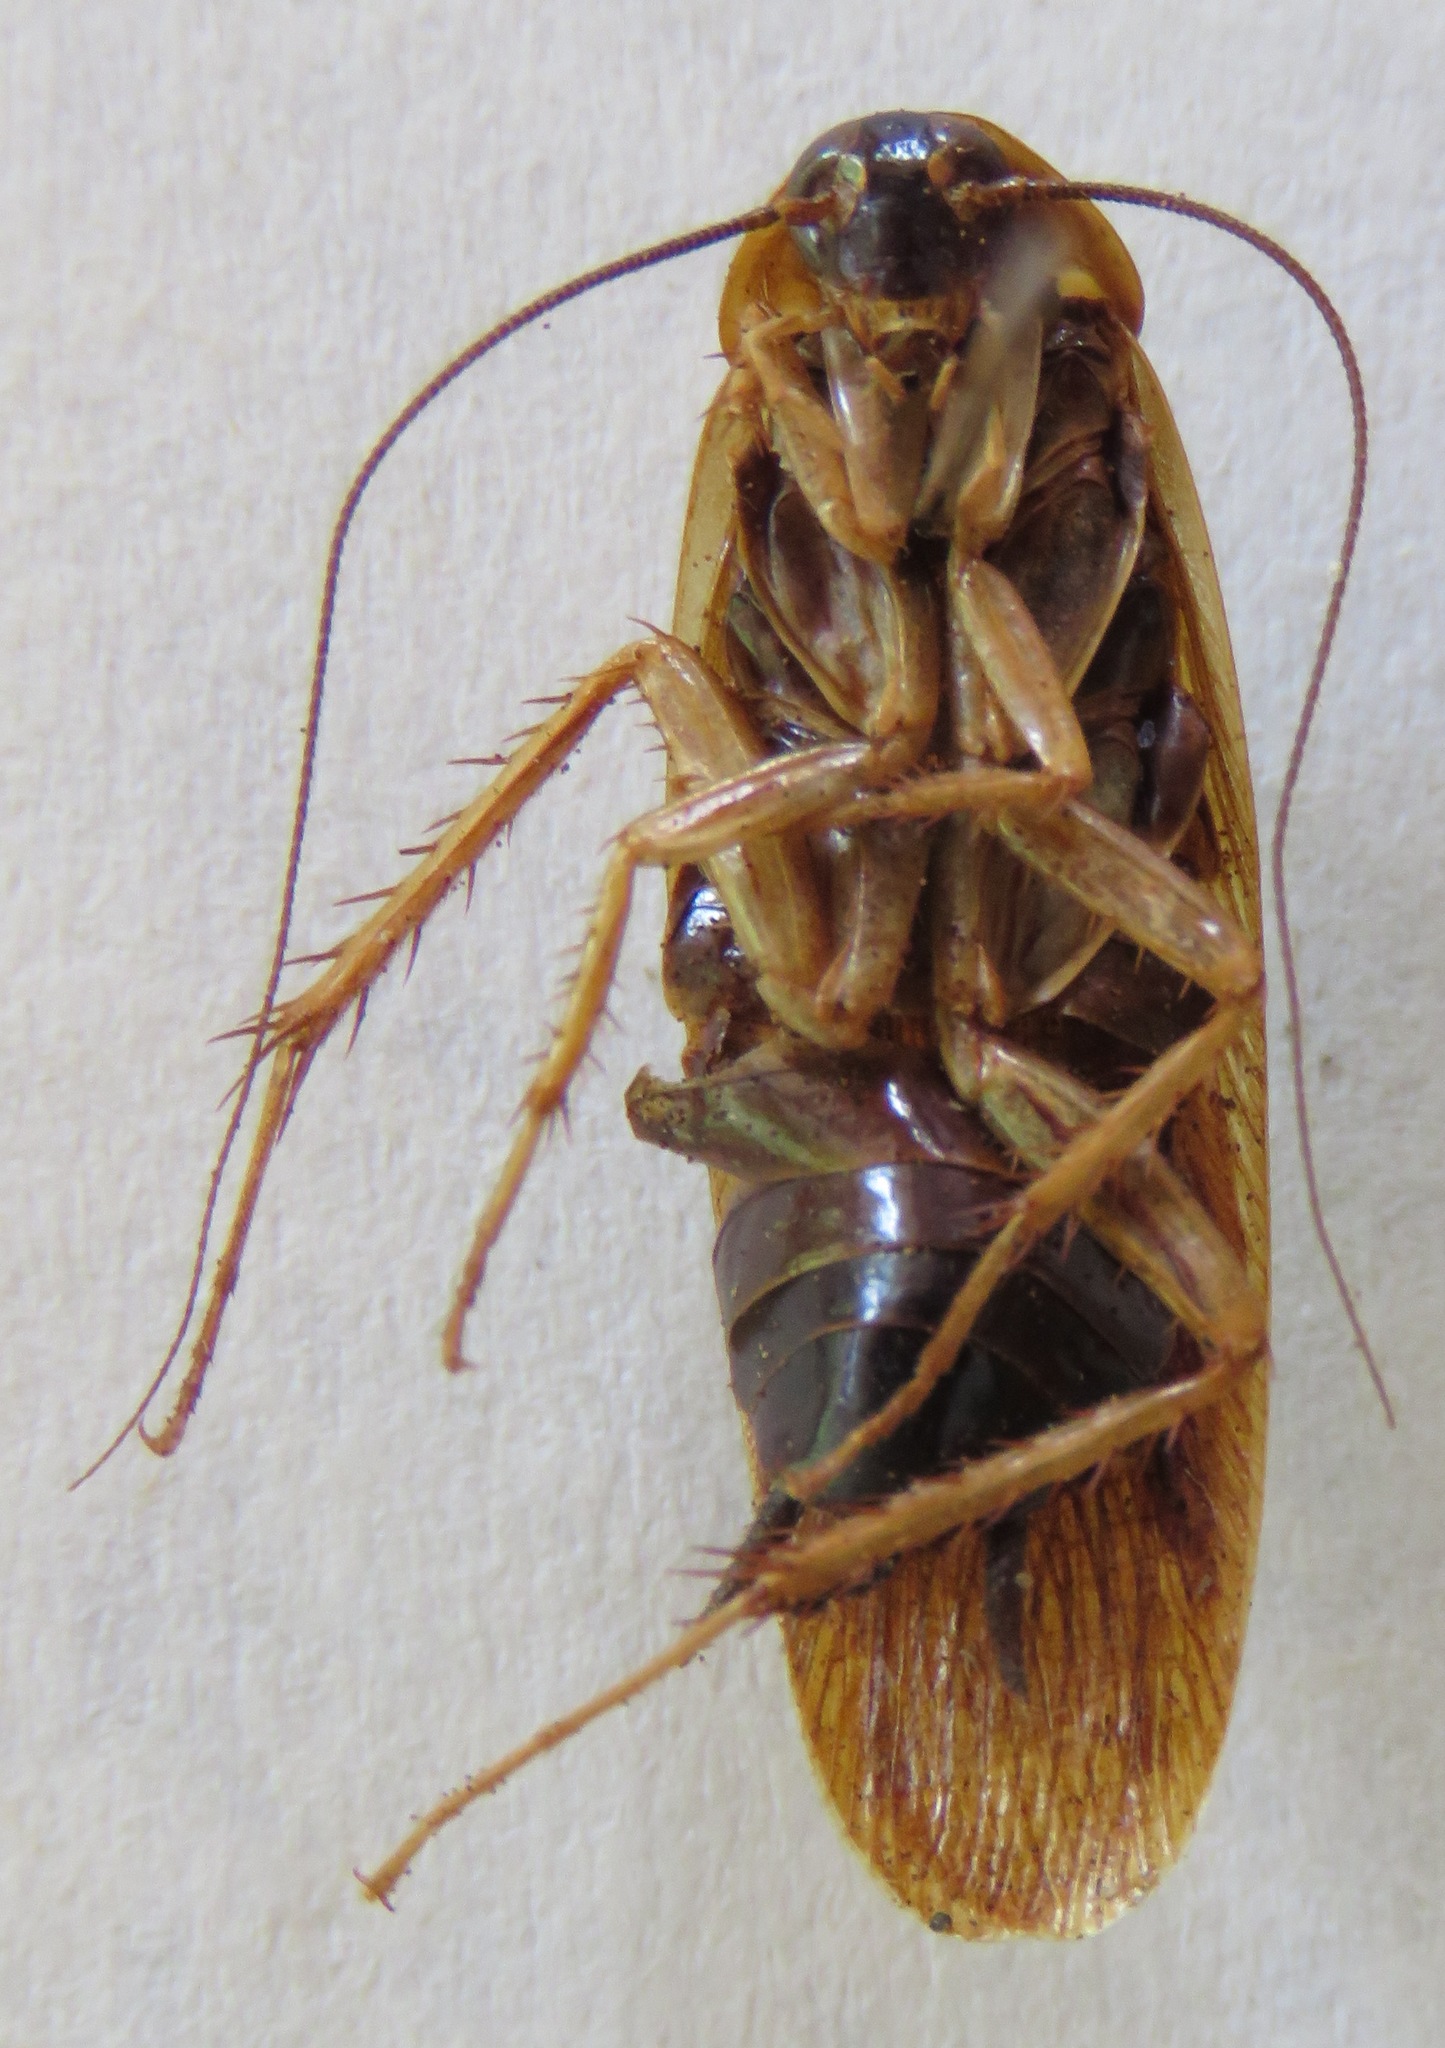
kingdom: Animalia
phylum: Arthropoda
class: Insecta
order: Blattodea
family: Ectobiidae
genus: Ischnoptera
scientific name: Ischnoptera rufa
